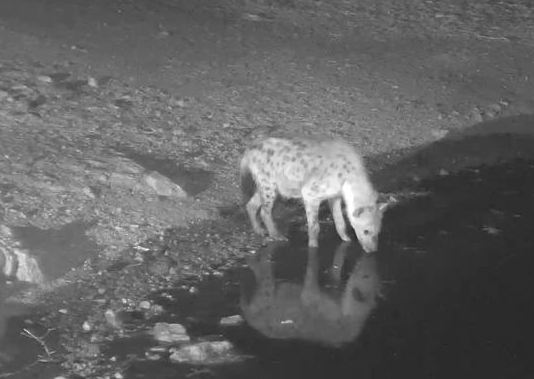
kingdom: Animalia
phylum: Chordata
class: Mammalia
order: Carnivora
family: Hyaenidae
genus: Crocuta
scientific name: Crocuta crocuta
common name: Spotted hyaena
